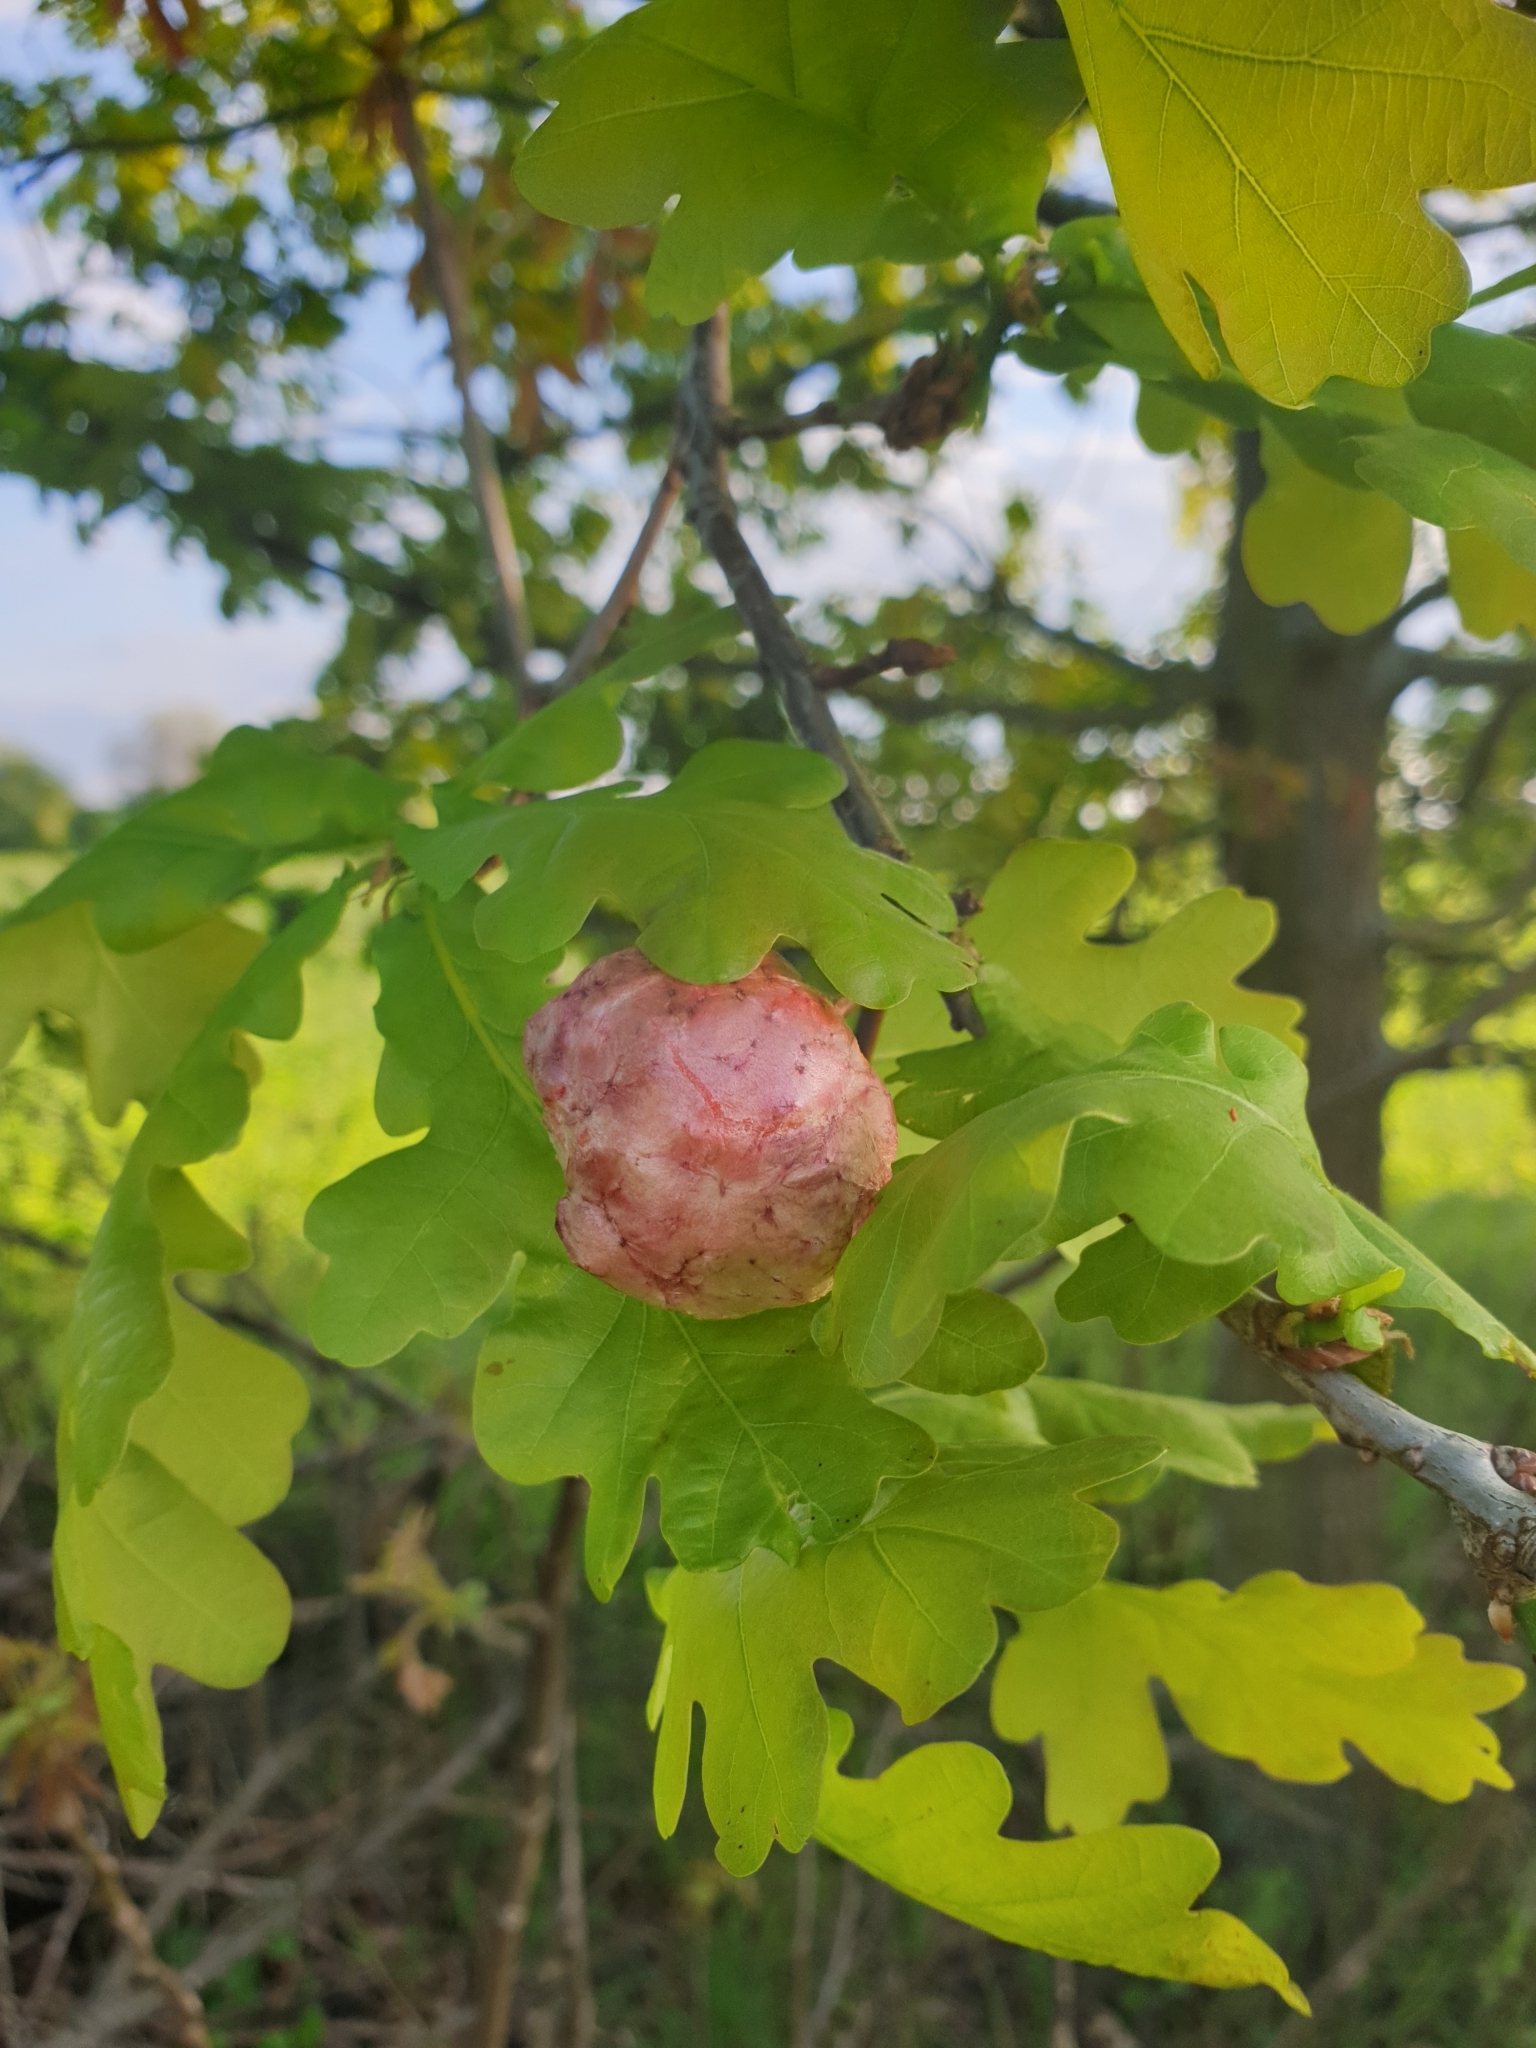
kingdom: Animalia
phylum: Arthropoda
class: Insecta
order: Hymenoptera
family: Cynipidae
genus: Biorhiza
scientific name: Biorhiza pallida
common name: Oak apple
